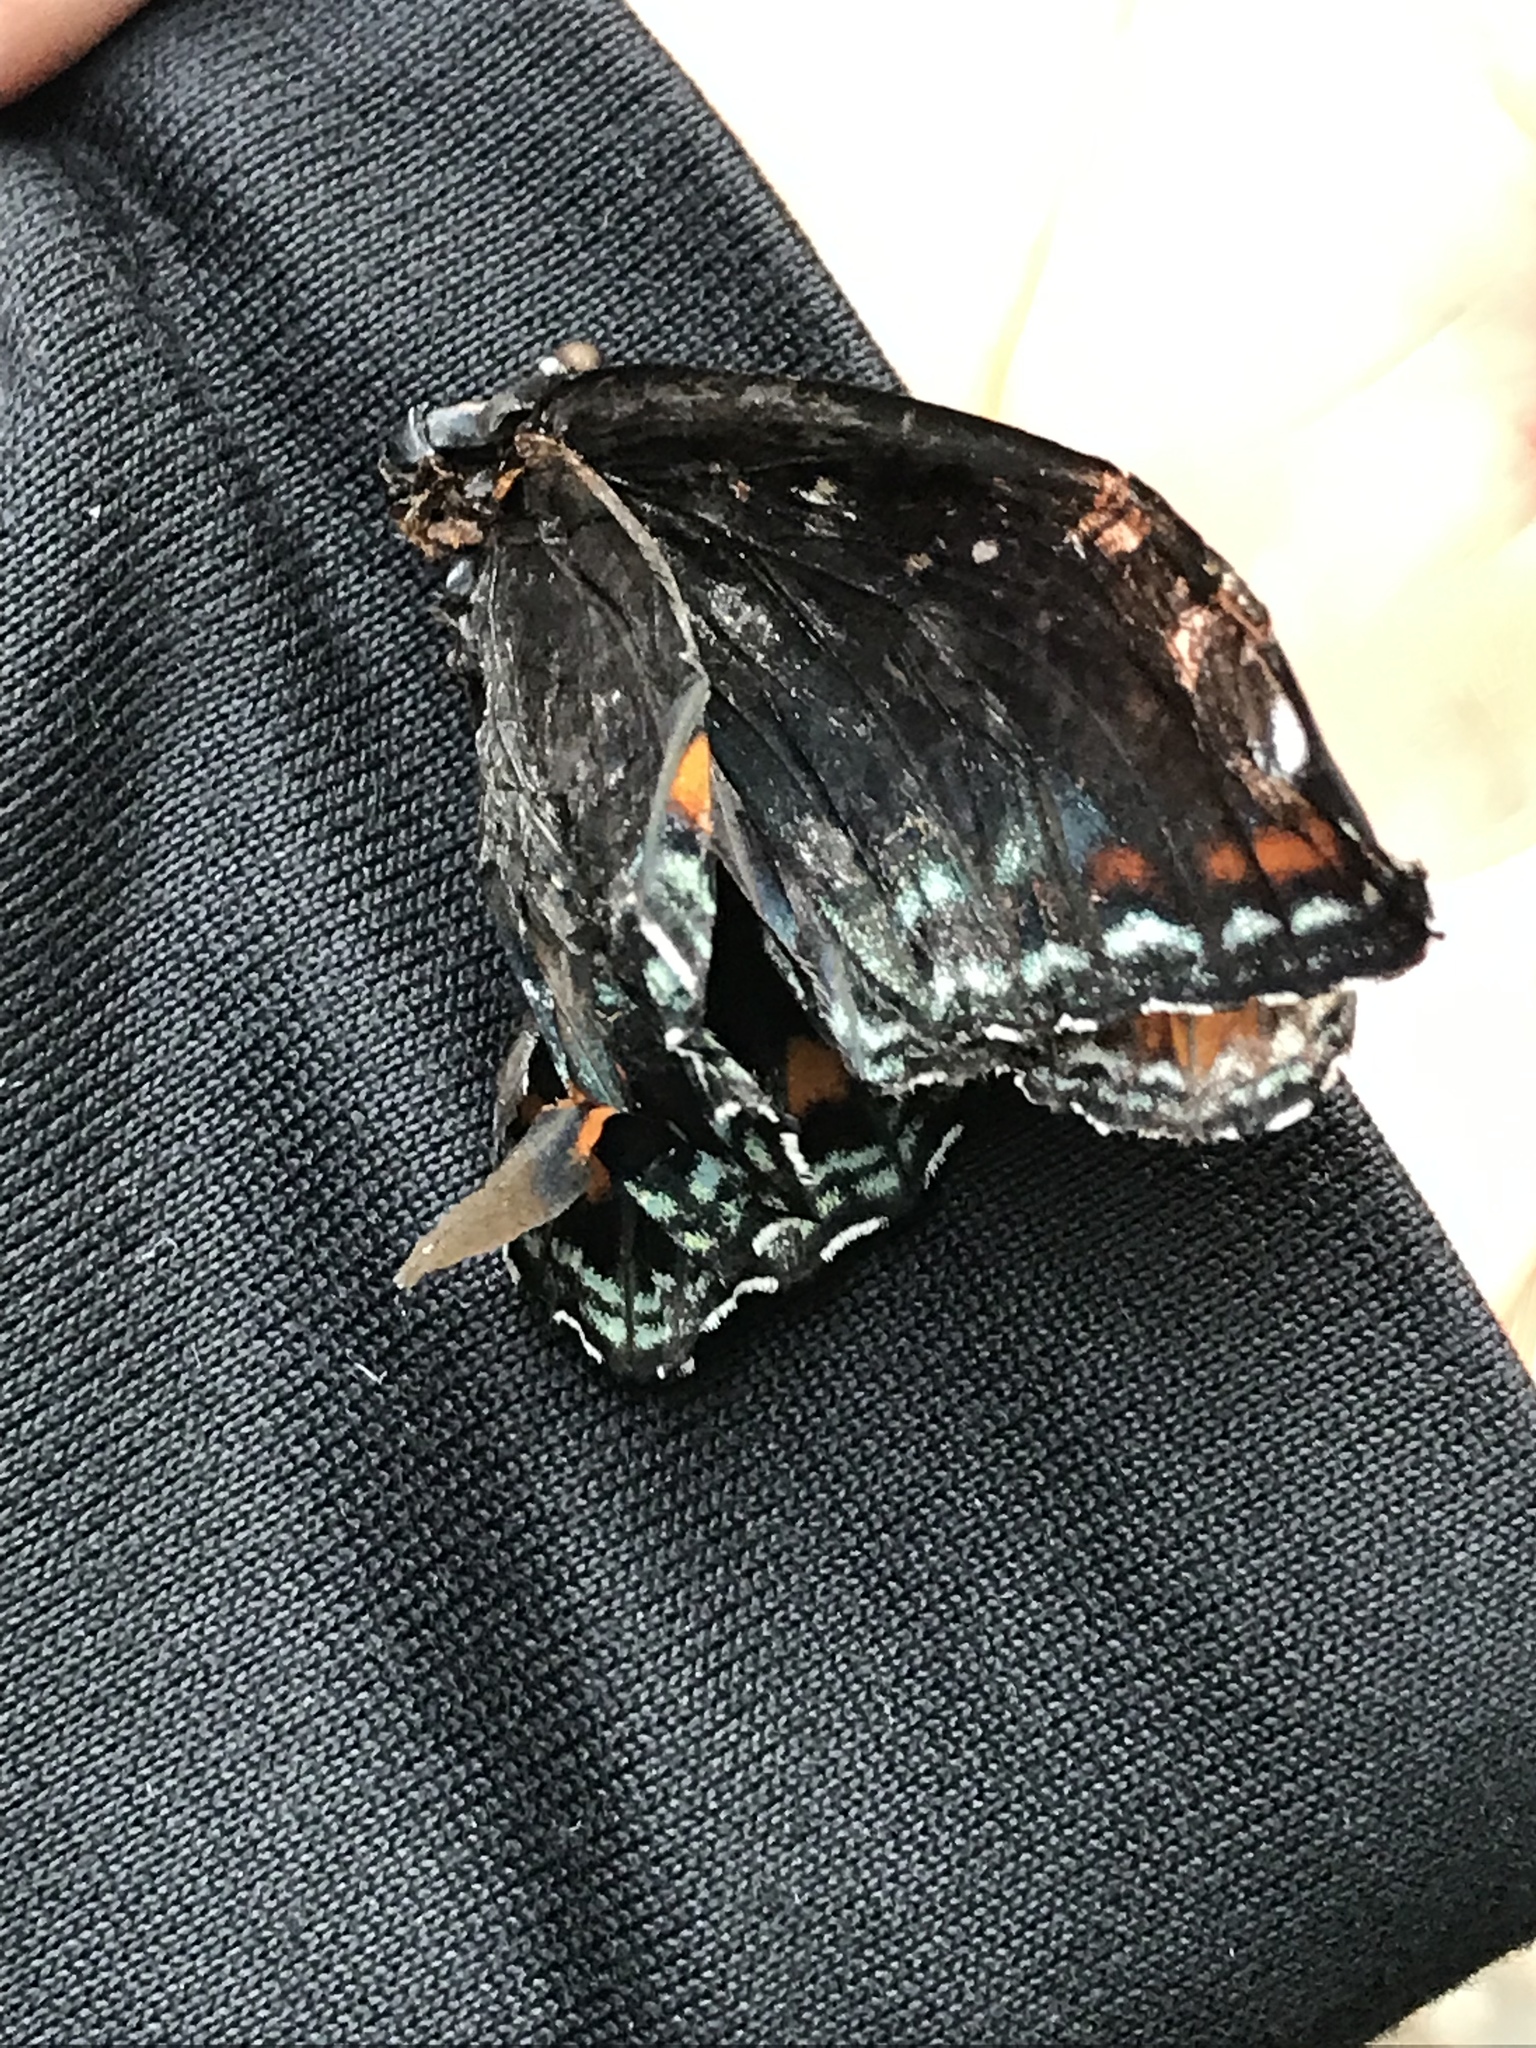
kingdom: Animalia
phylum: Arthropoda
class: Insecta
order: Lepidoptera
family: Nymphalidae
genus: Limenitis
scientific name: Limenitis astyanax
